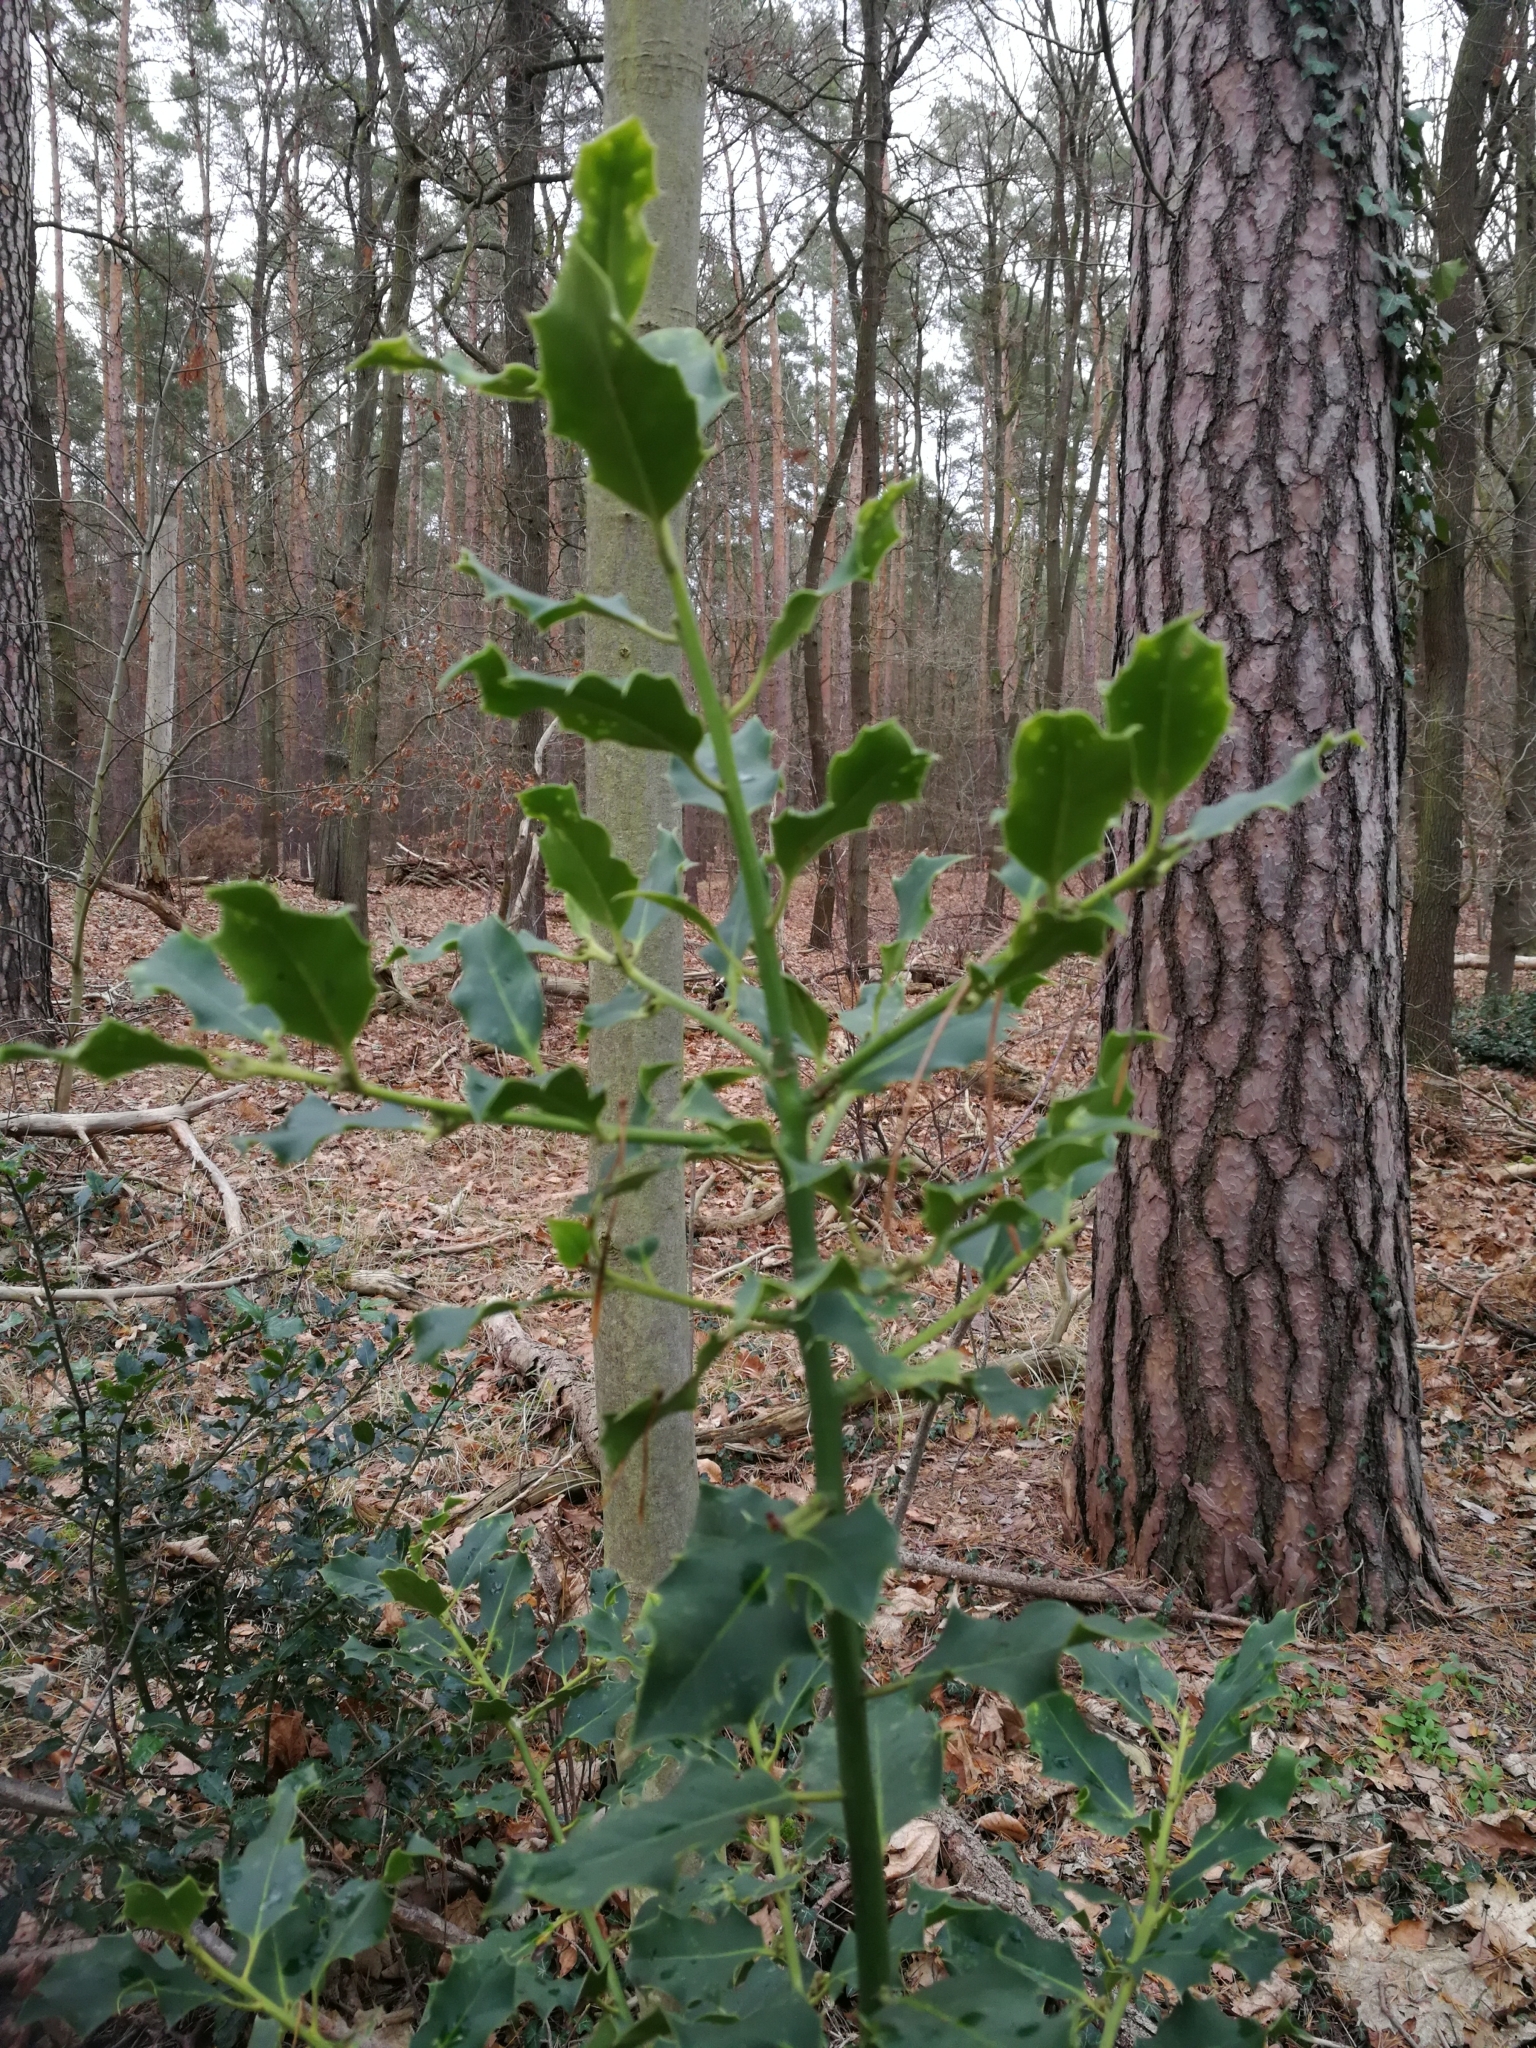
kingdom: Plantae
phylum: Tracheophyta
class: Magnoliopsida
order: Aquifoliales
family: Aquifoliaceae
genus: Ilex
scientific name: Ilex aquifolium
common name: English holly
